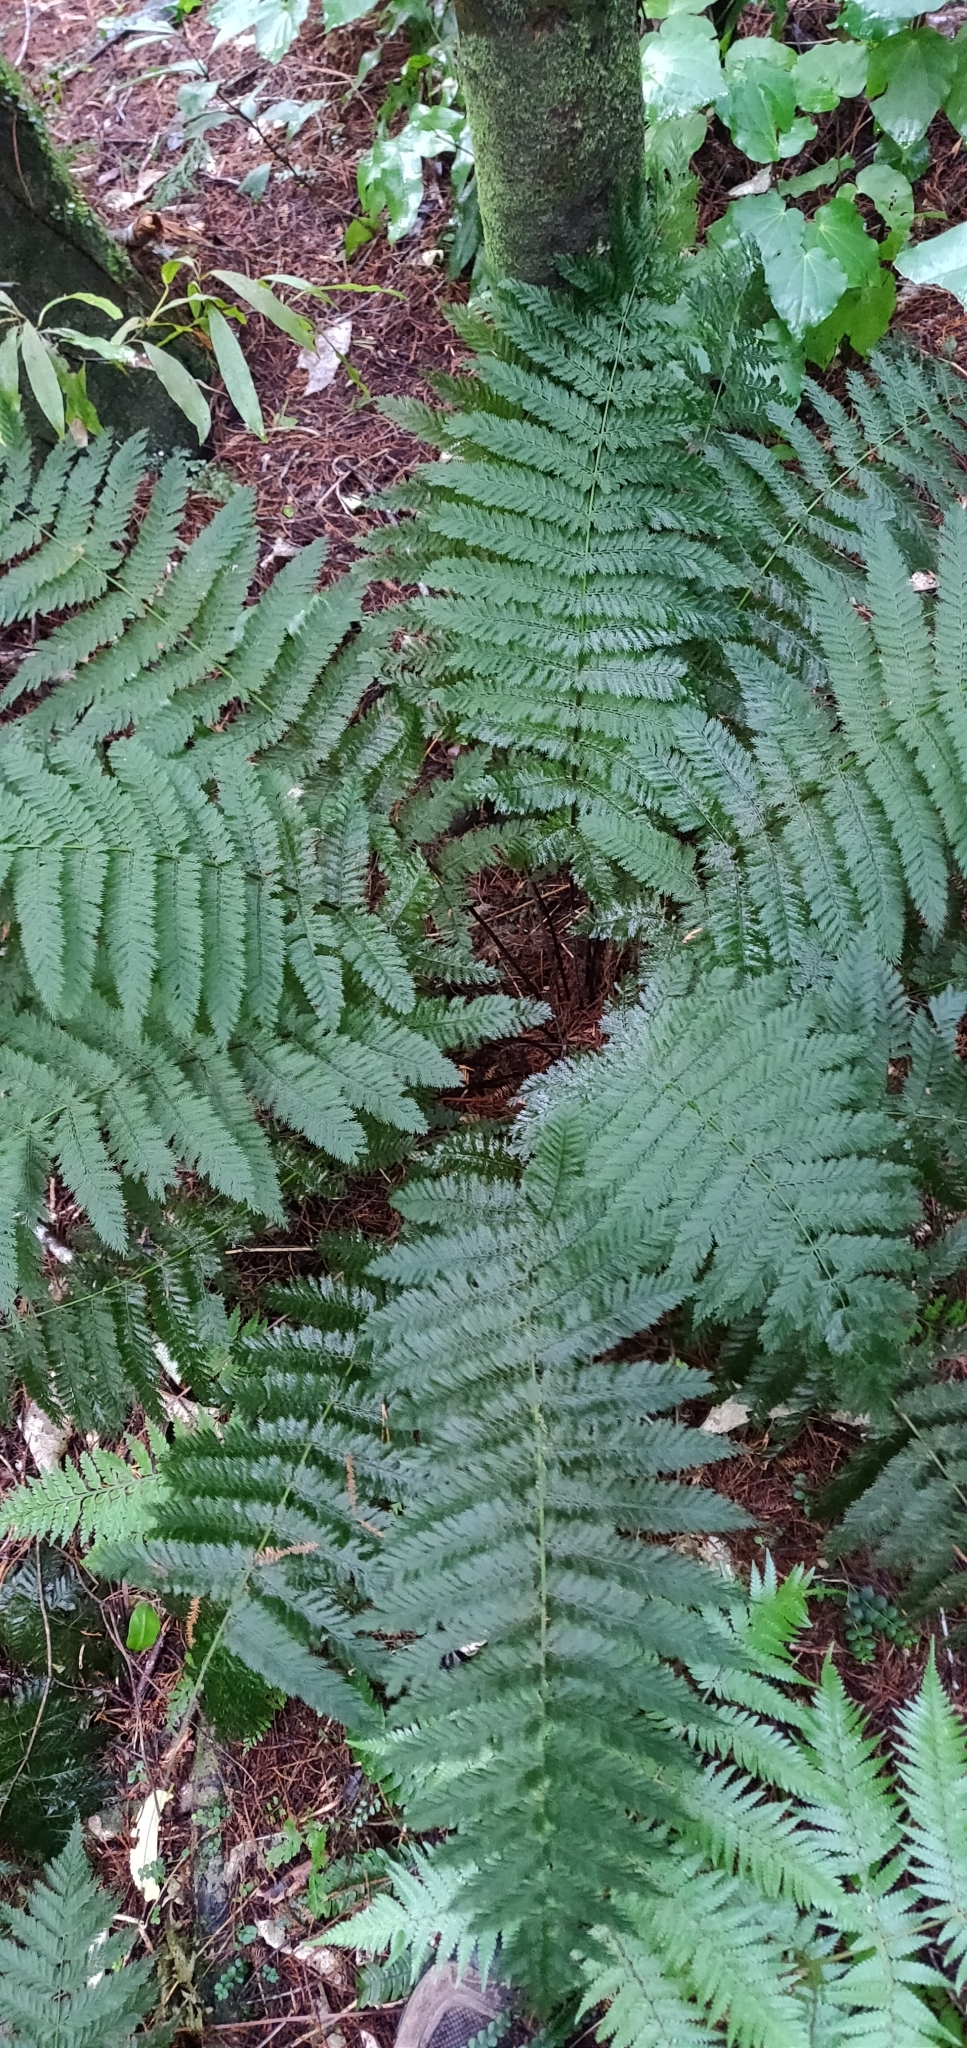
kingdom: Plantae
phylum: Tracheophyta
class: Polypodiopsida
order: Osmundales
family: Osmundaceae
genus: Leptopteris
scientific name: Leptopteris hymenophylloides
